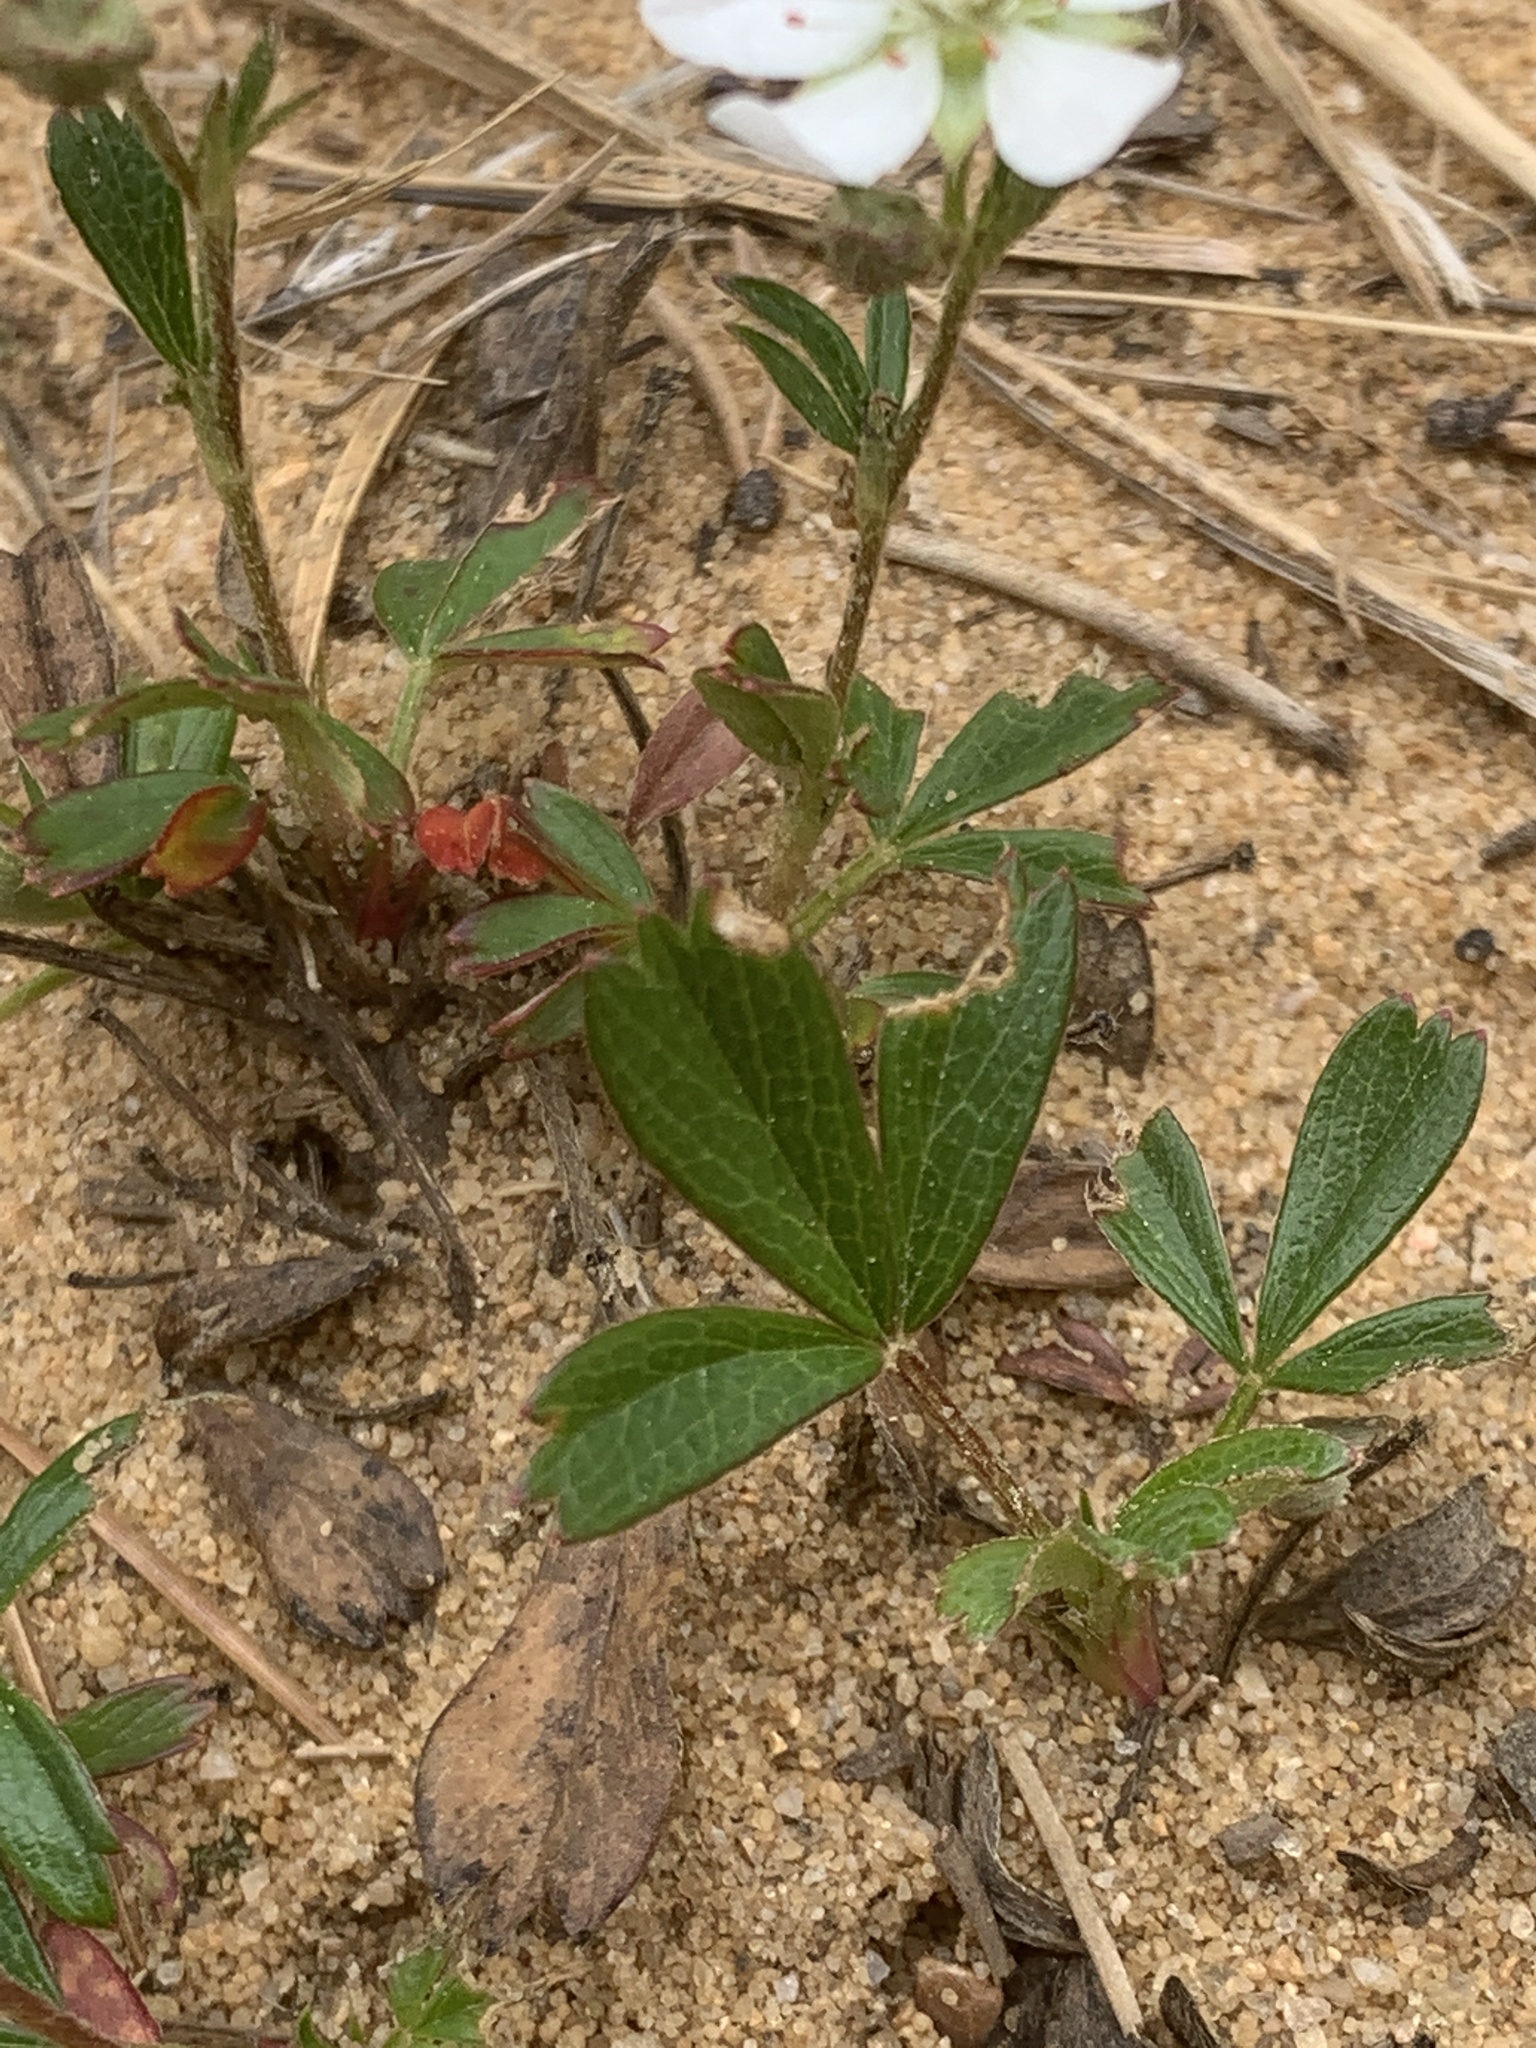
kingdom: Plantae
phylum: Tracheophyta
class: Magnoliopsida
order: Rosales
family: Rosaceae
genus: Sibbaldia
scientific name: Sibbaldia tridentata
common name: Three-toothed cinquefoil
